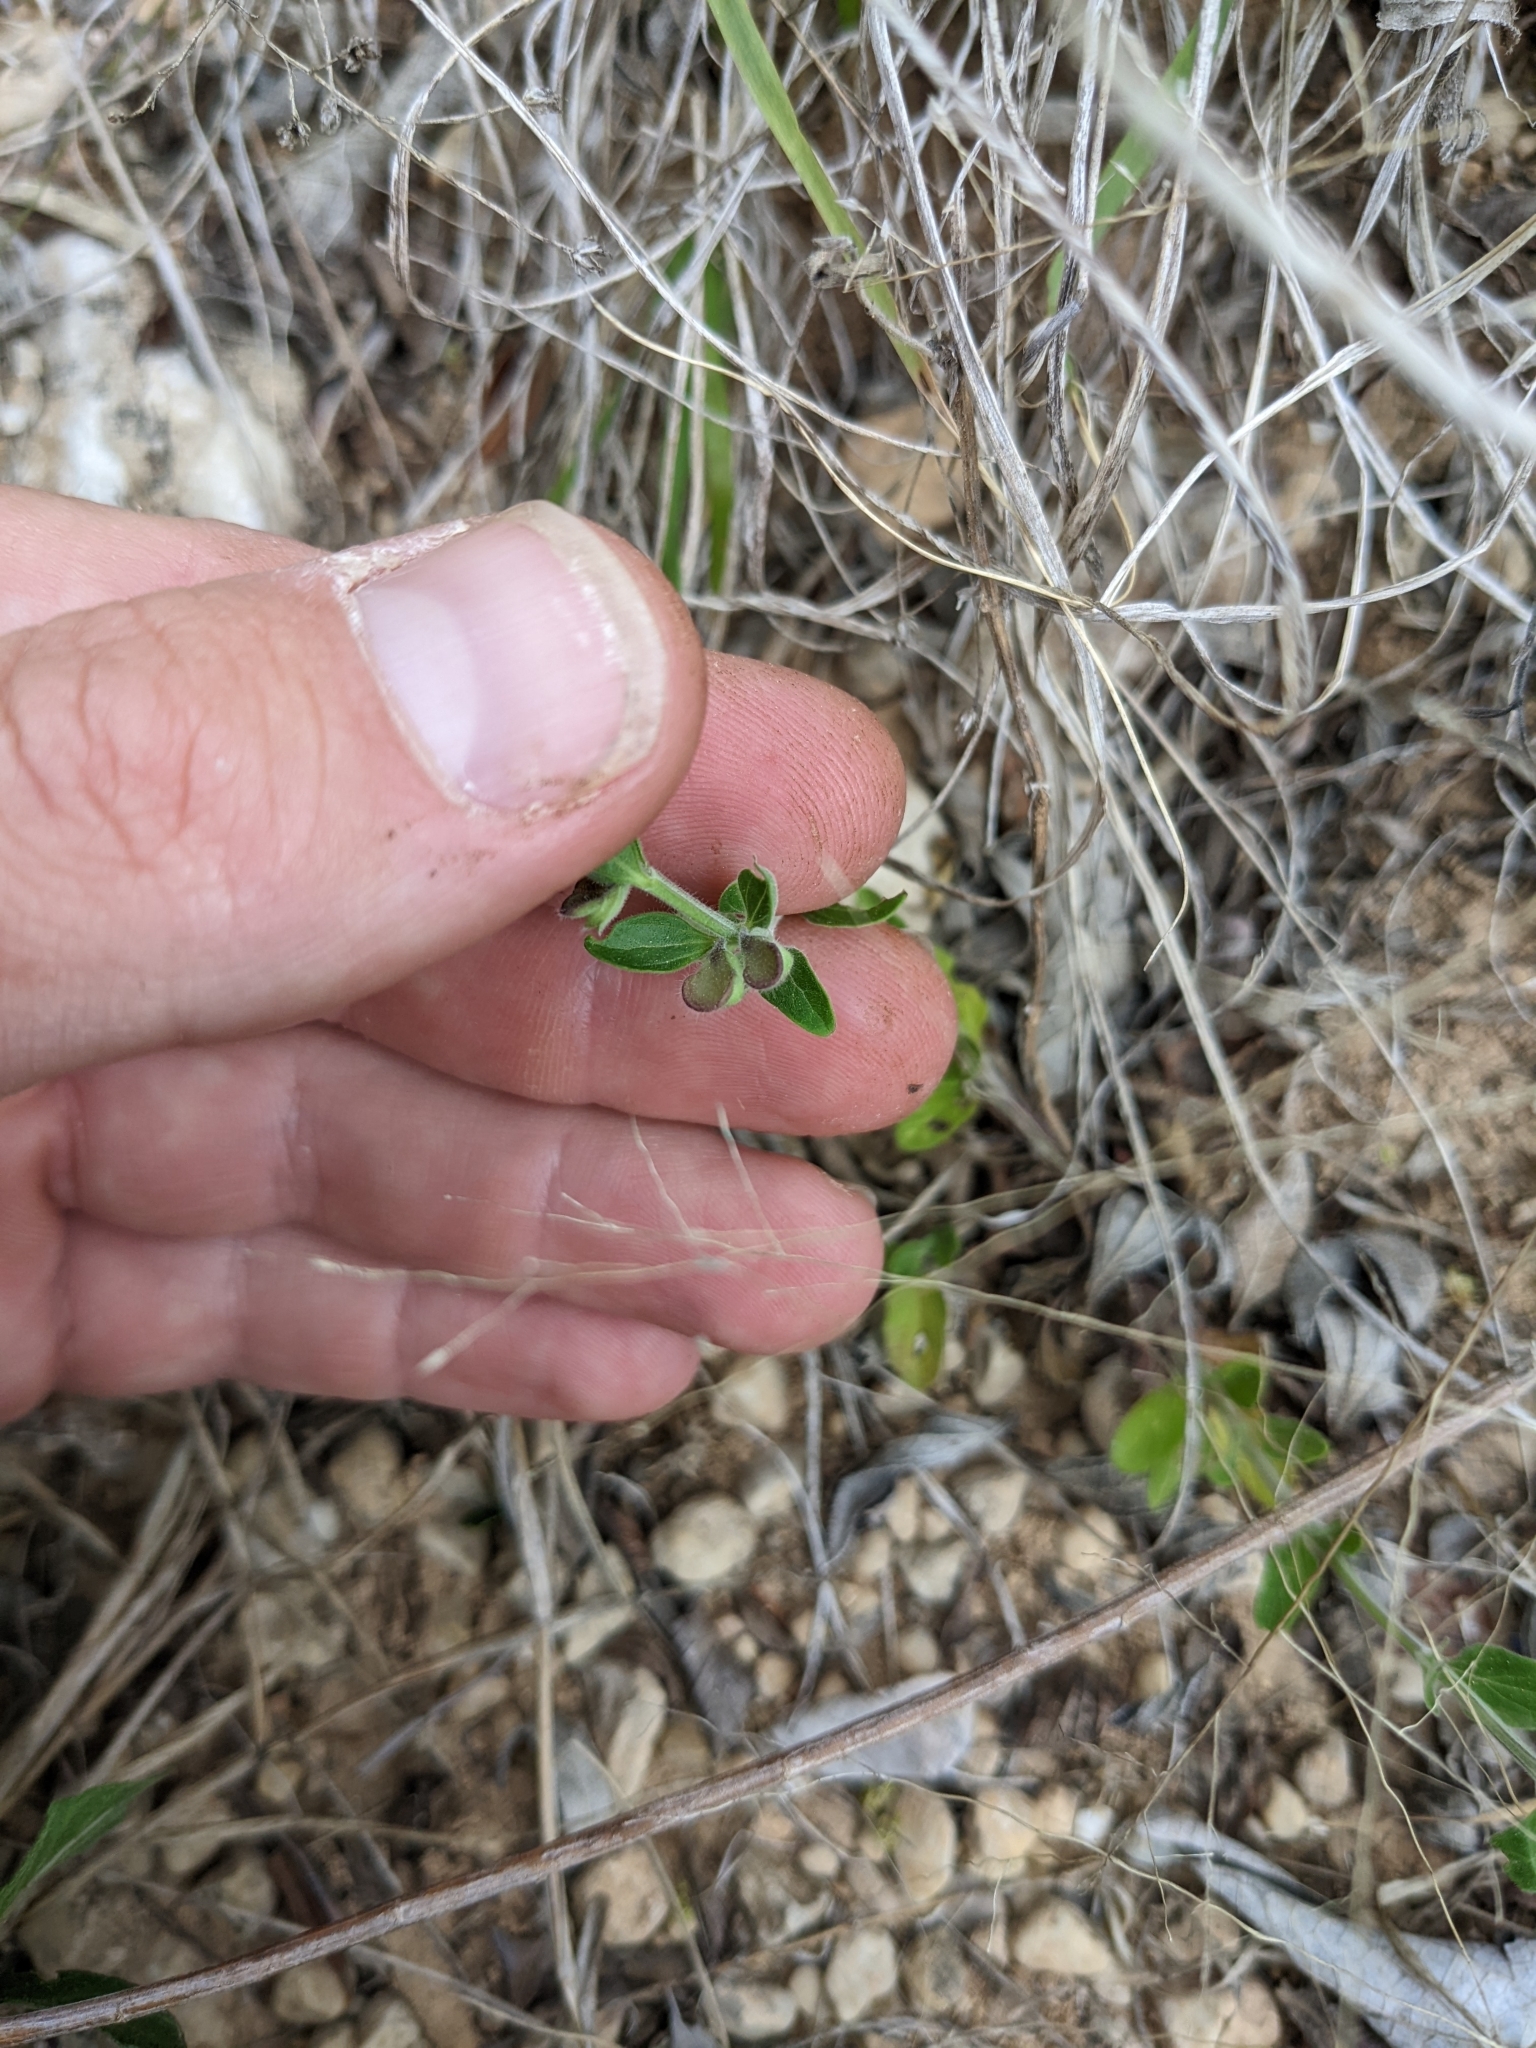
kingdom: Plantae
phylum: Tracheophyta
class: Magnoliopsida
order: Lamiales
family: Lamiaceae
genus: Scutellaria
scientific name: Scutellaria drummondii
